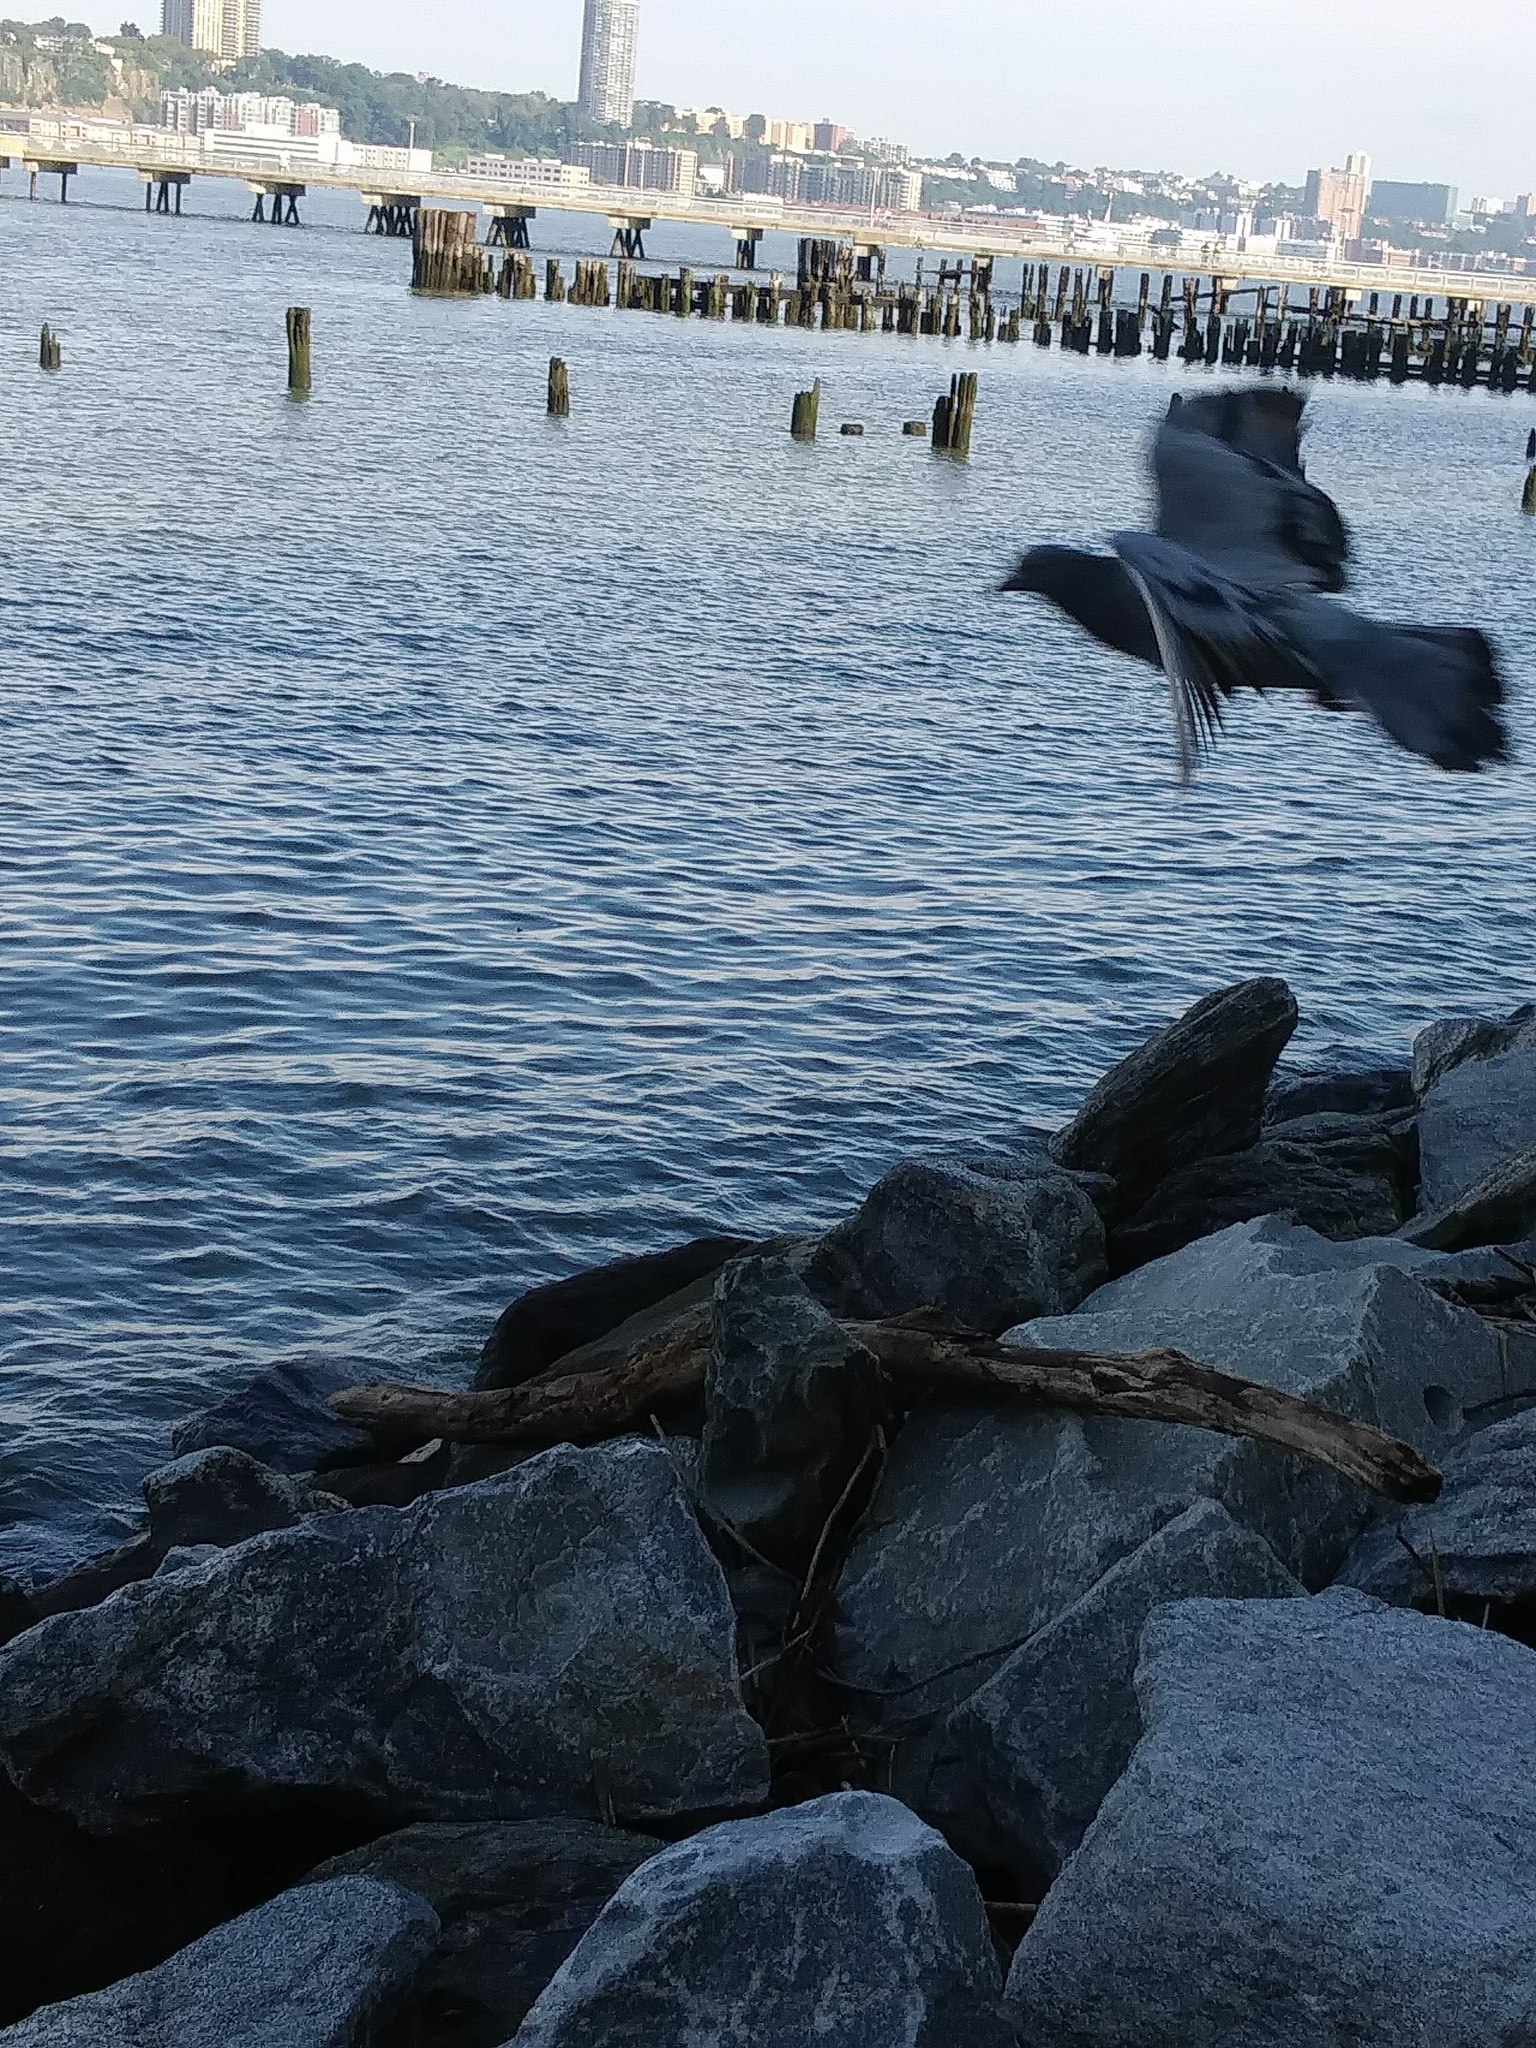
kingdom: Animalia
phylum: Chordata
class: Aves
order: Columbiformes
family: Columbidae
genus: Columba
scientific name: Columba livia
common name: Rock pigeon
